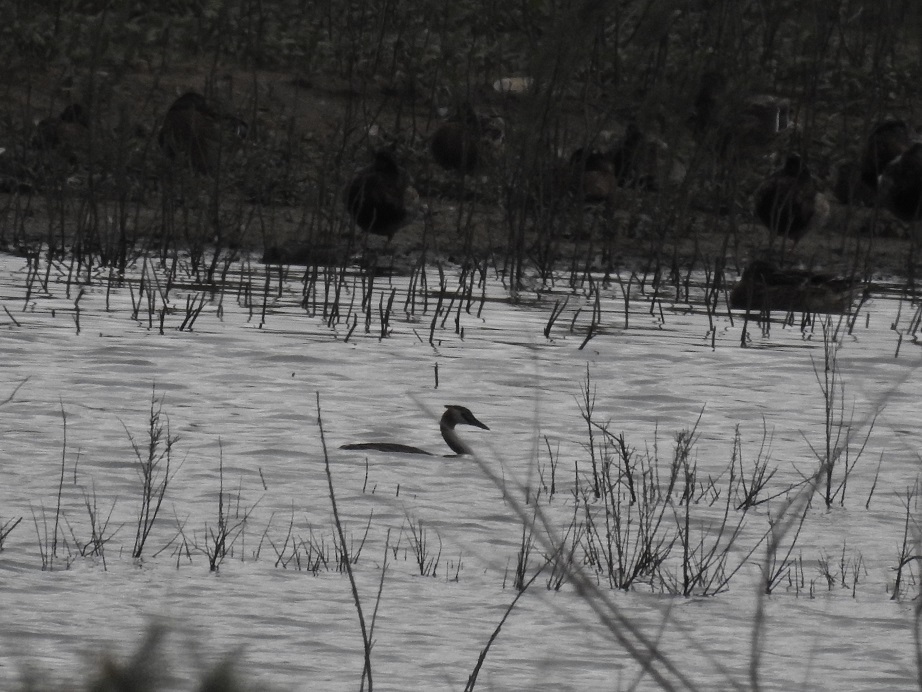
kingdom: Animalia
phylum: Chordata
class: Aves
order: Podicipediformes
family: Podicipedidae
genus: Podiceps
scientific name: Podiceps cristatus
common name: Great crested grebe
